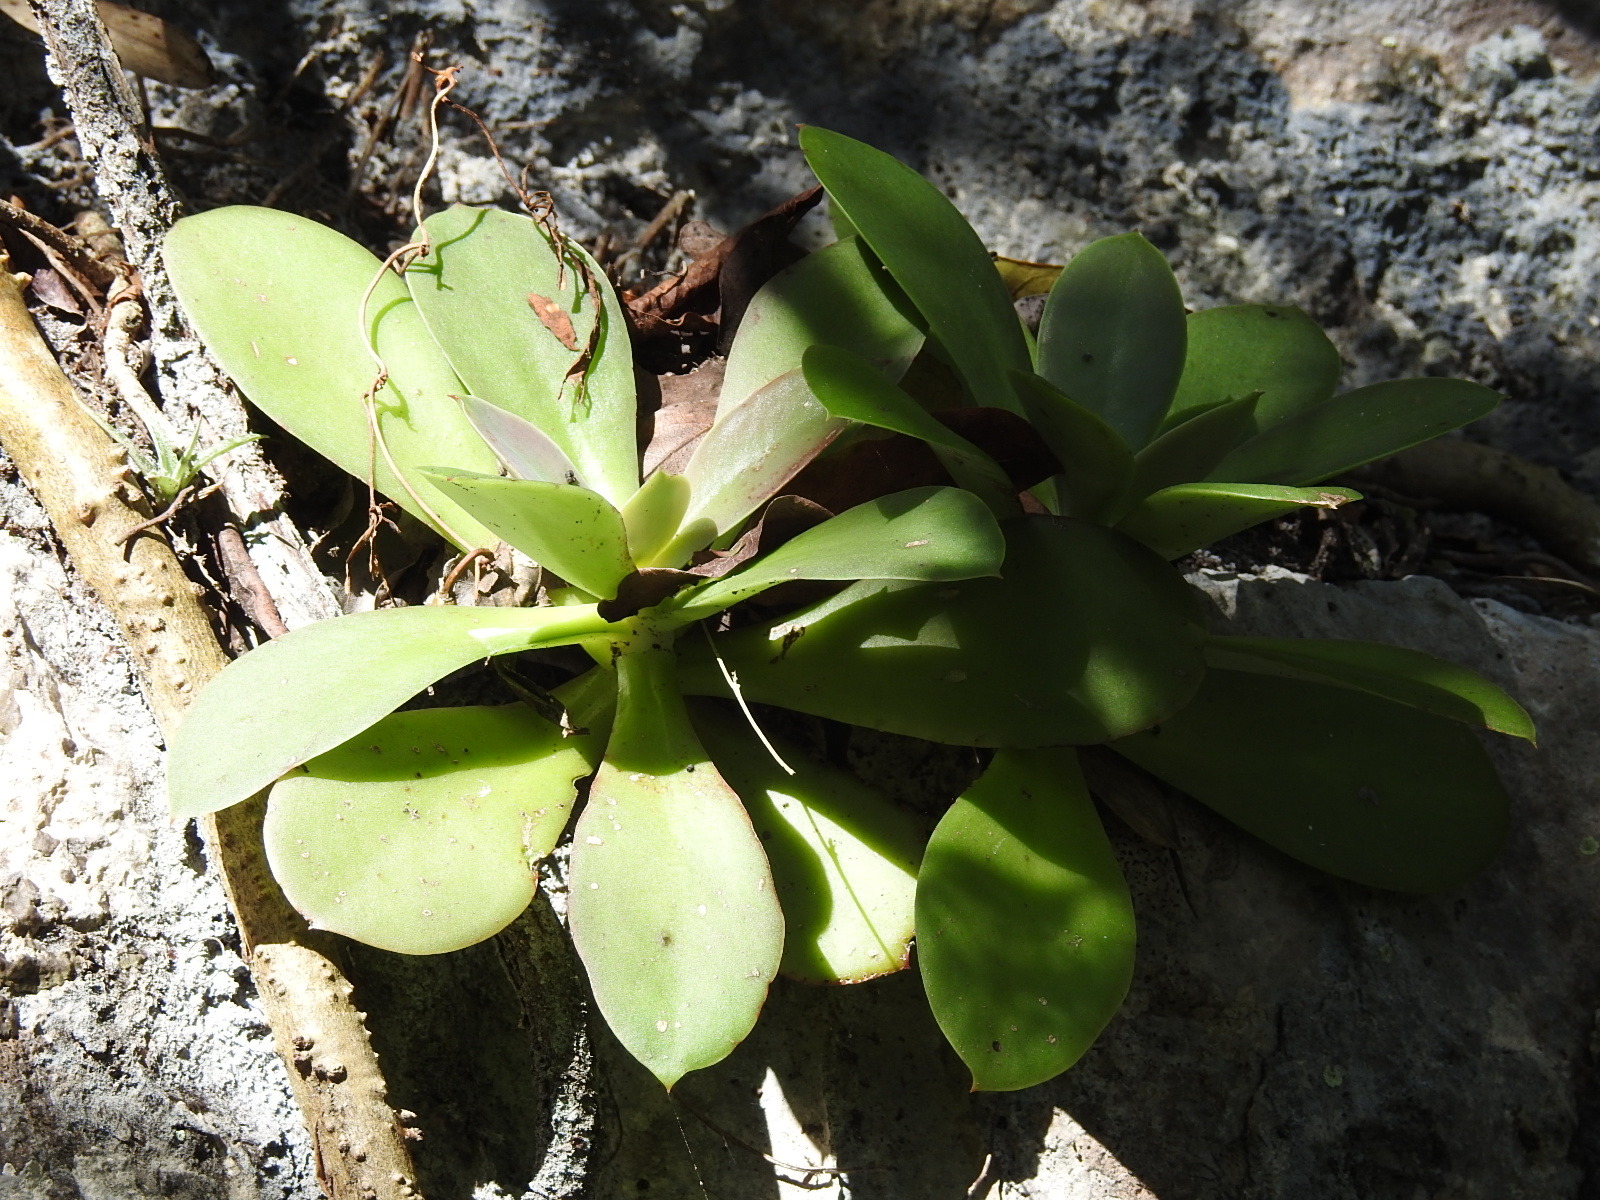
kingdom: Plantae
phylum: Tracheophyta
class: Magnoliopsida
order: Saxifragales
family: Crassulaceae
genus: Echeveria
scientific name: Echeveria prunina
